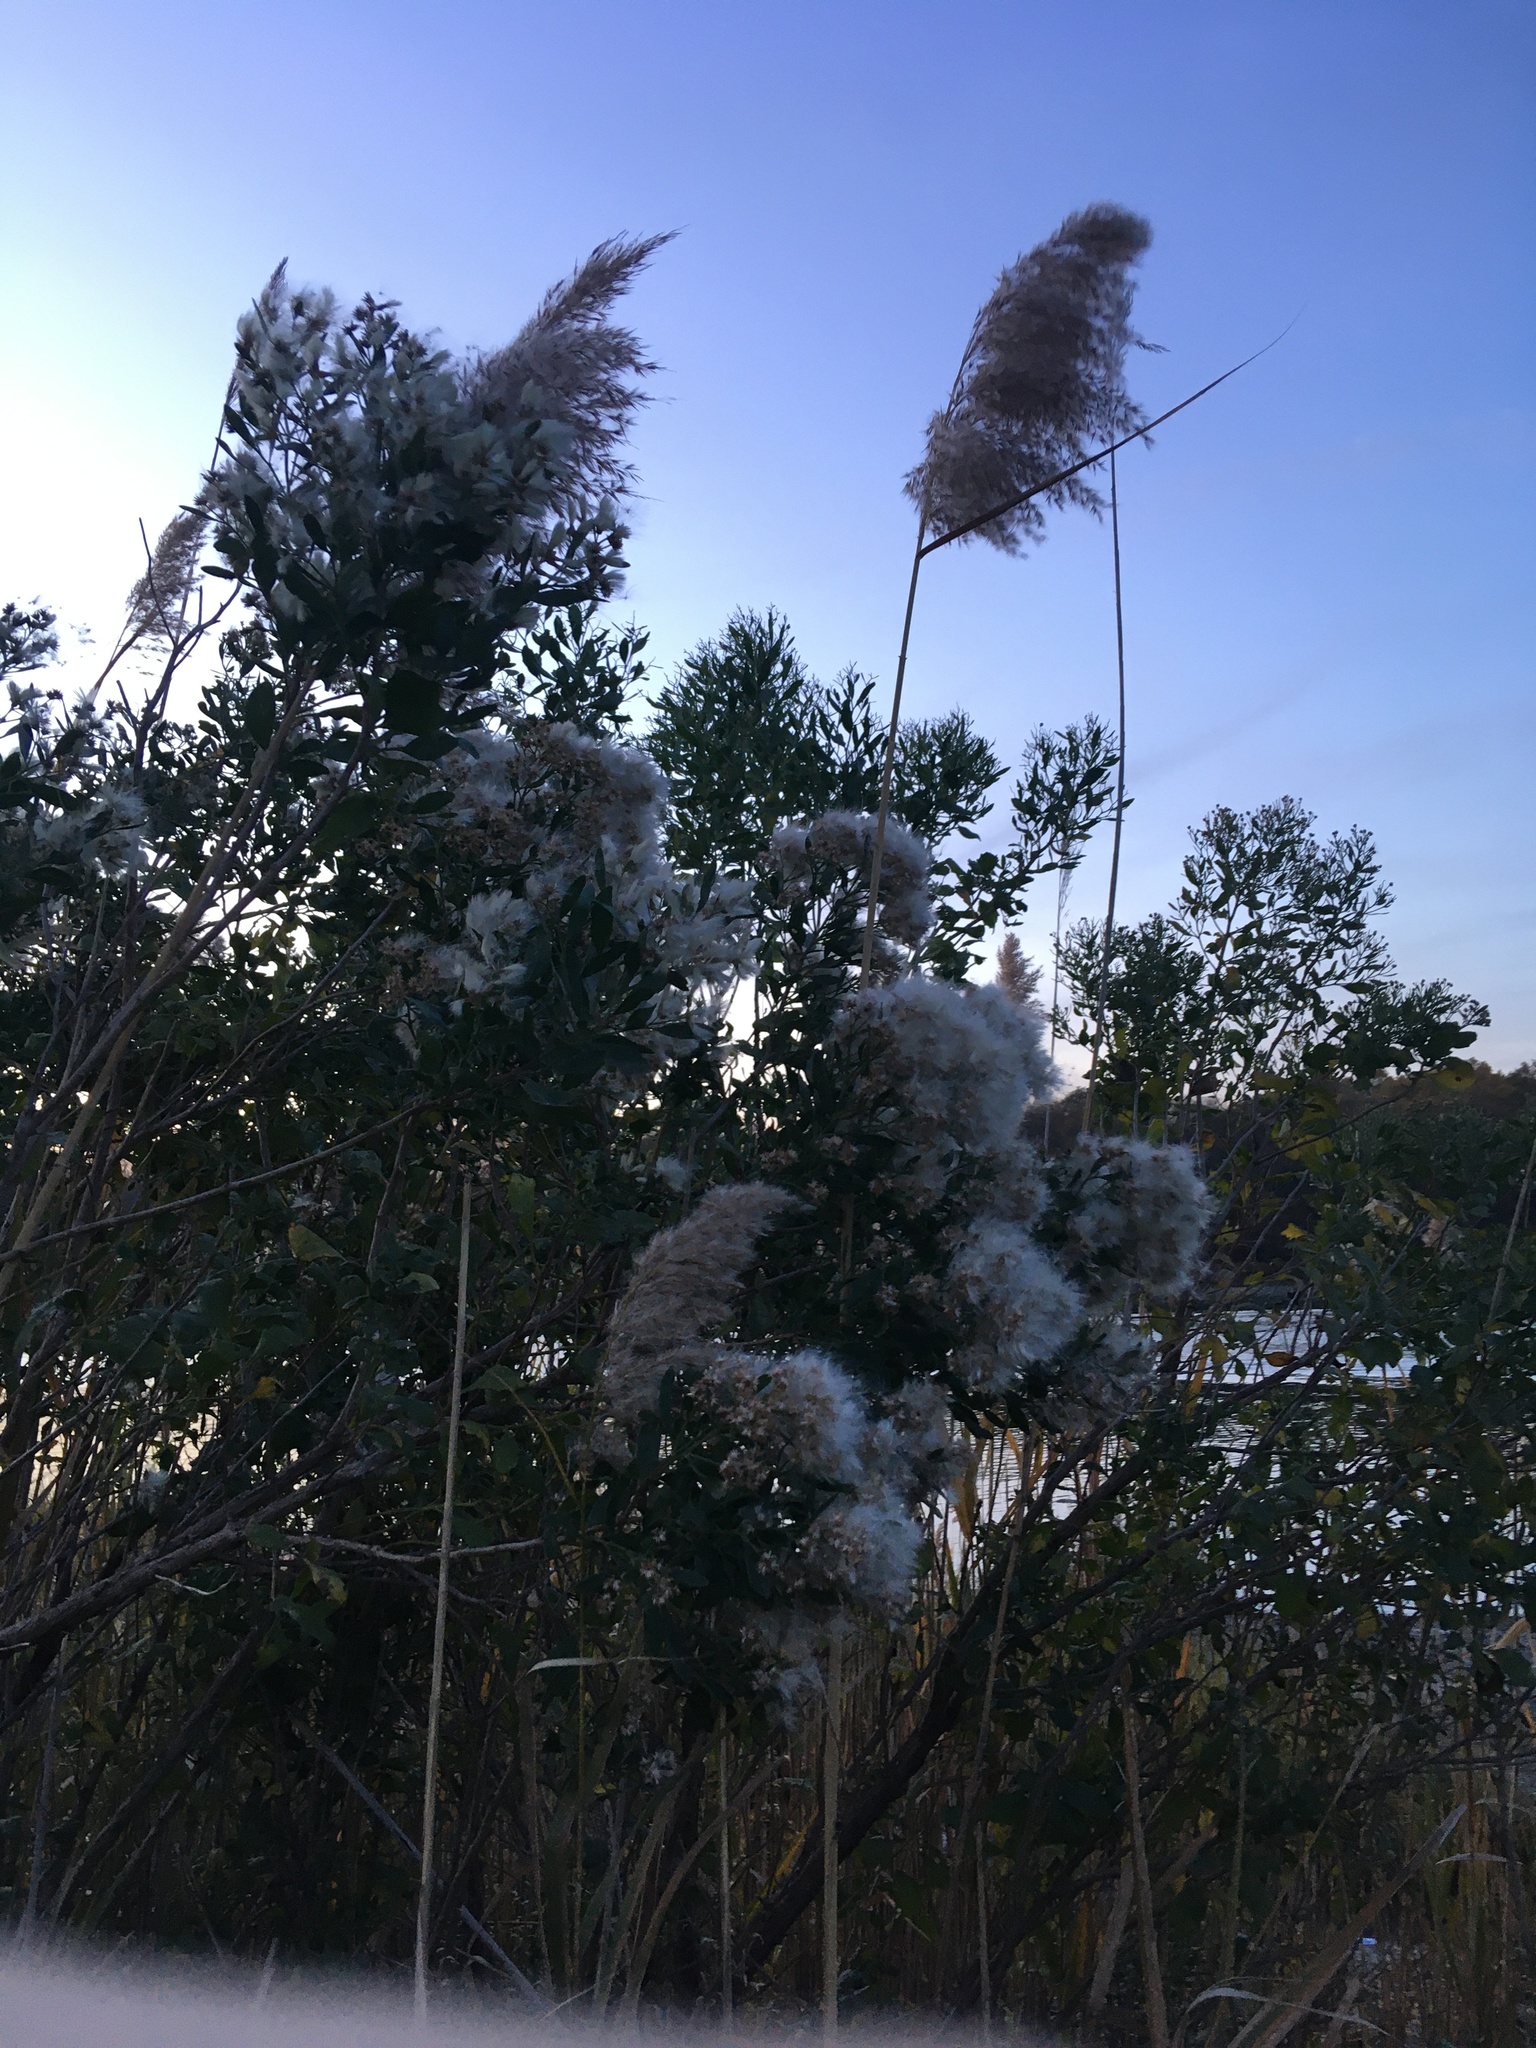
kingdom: Plantae
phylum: Tracheophyta
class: Magnoliopsida
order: Asterales
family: Asteraceae
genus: Baccharis
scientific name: Baccharis halimifolia
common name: Eastern baccharis
